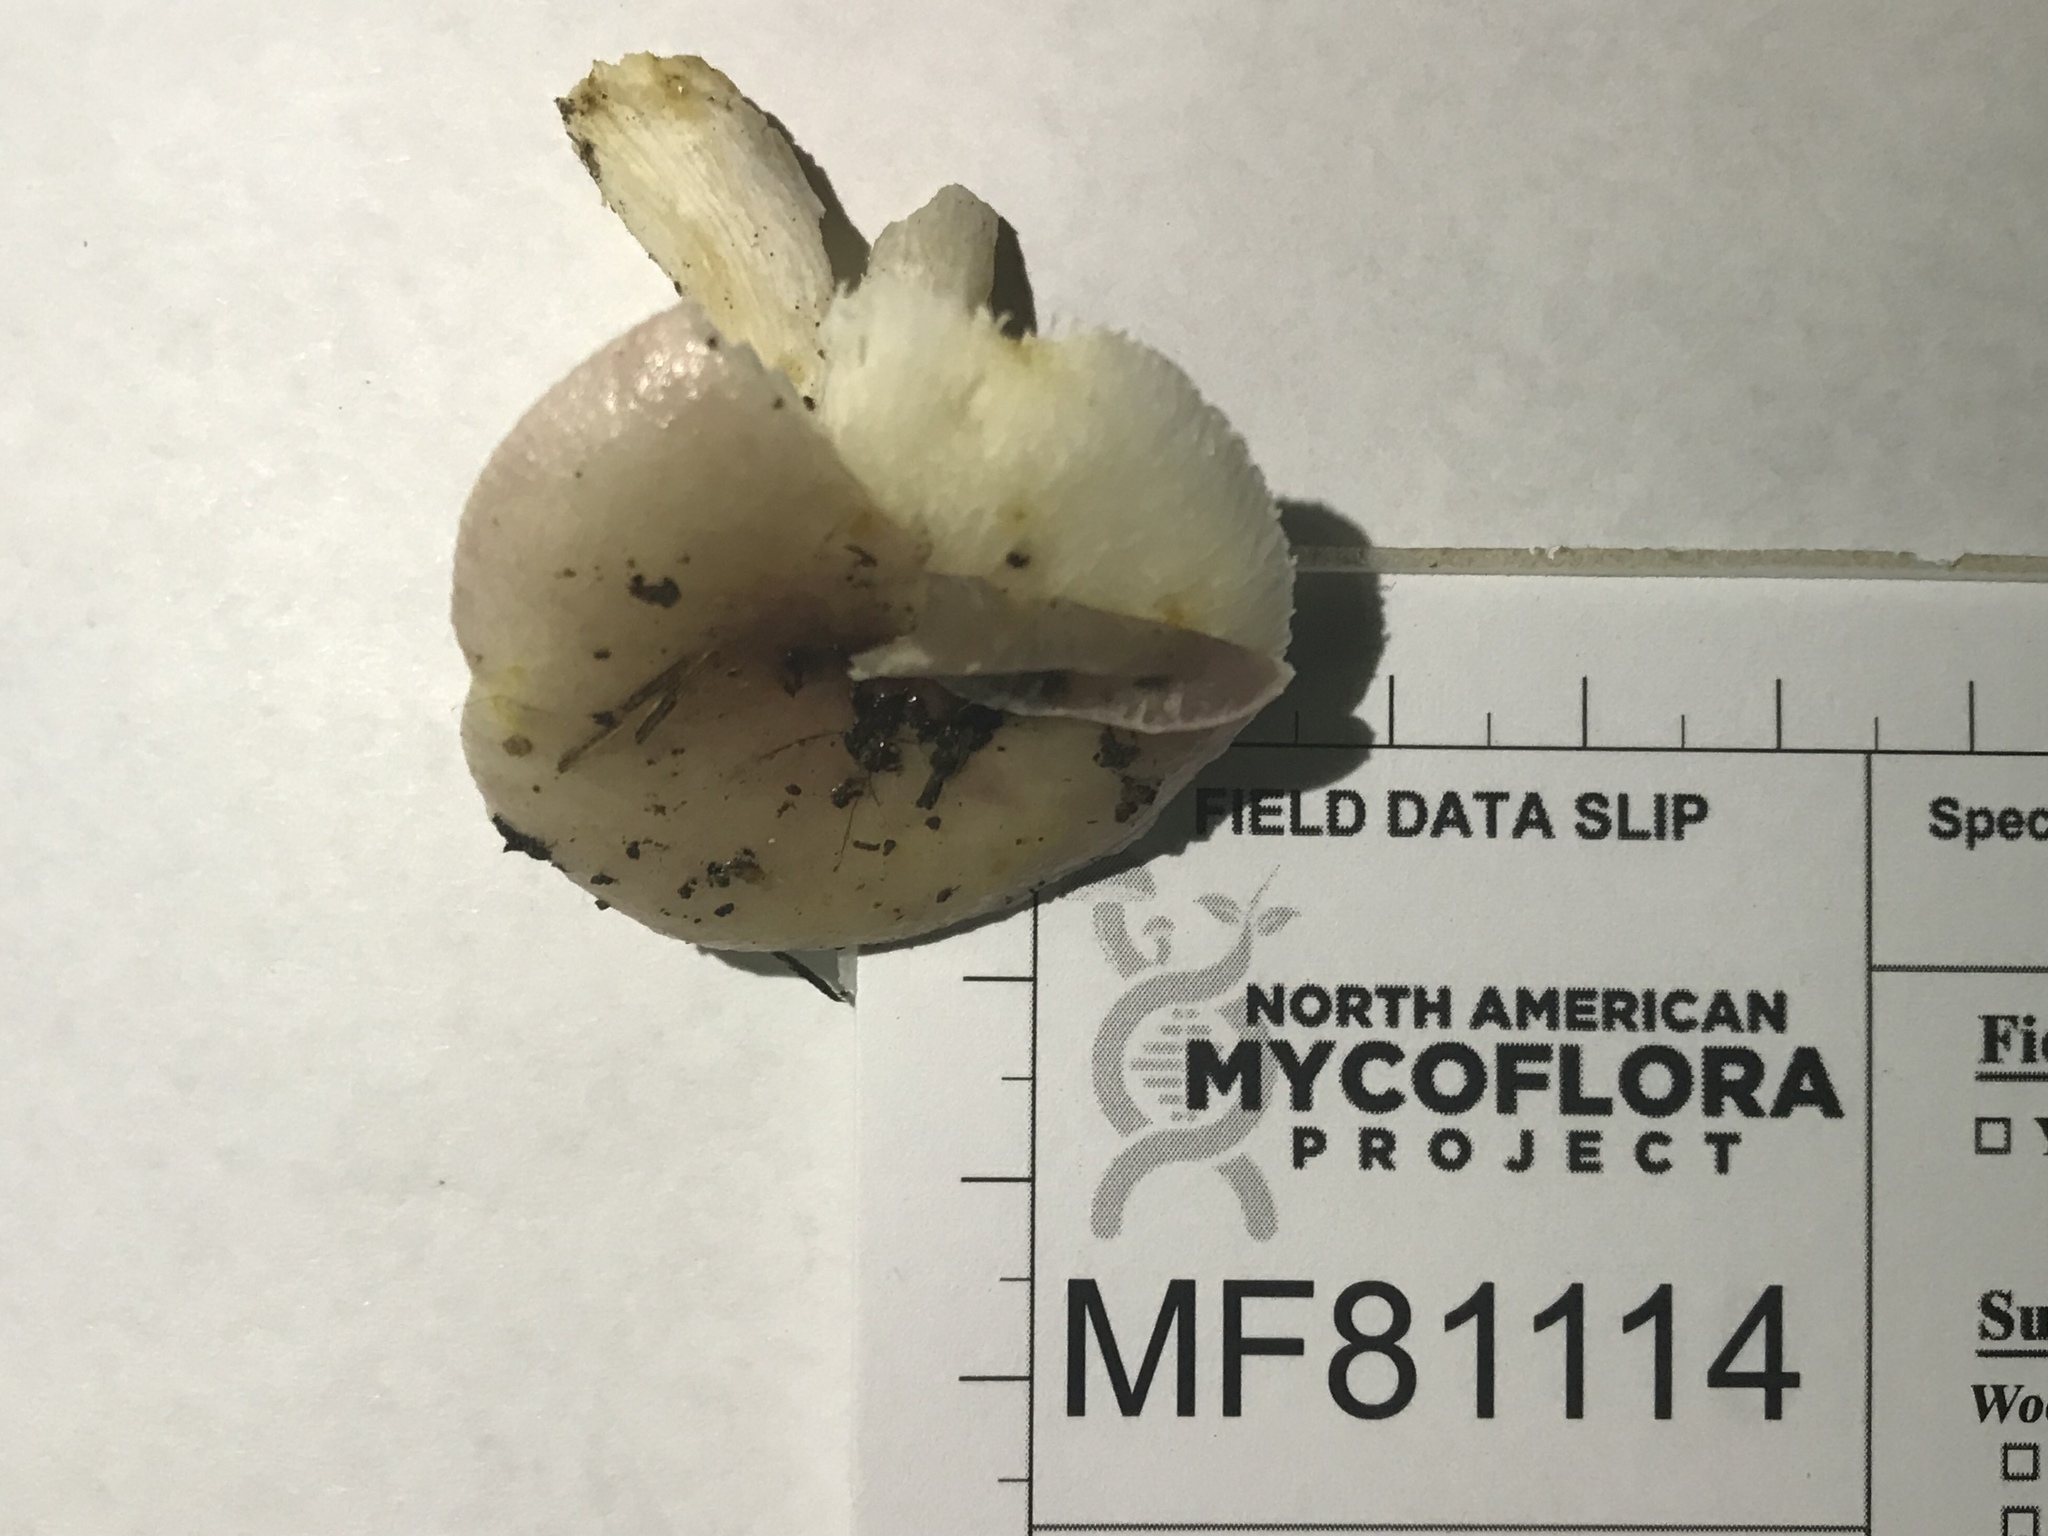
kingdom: Fungi
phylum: Basidiomycota
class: Agaricomycetes
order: Russulales
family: Russulaceae
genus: Russula
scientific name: Russula vinacea
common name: Blackish-red russula
